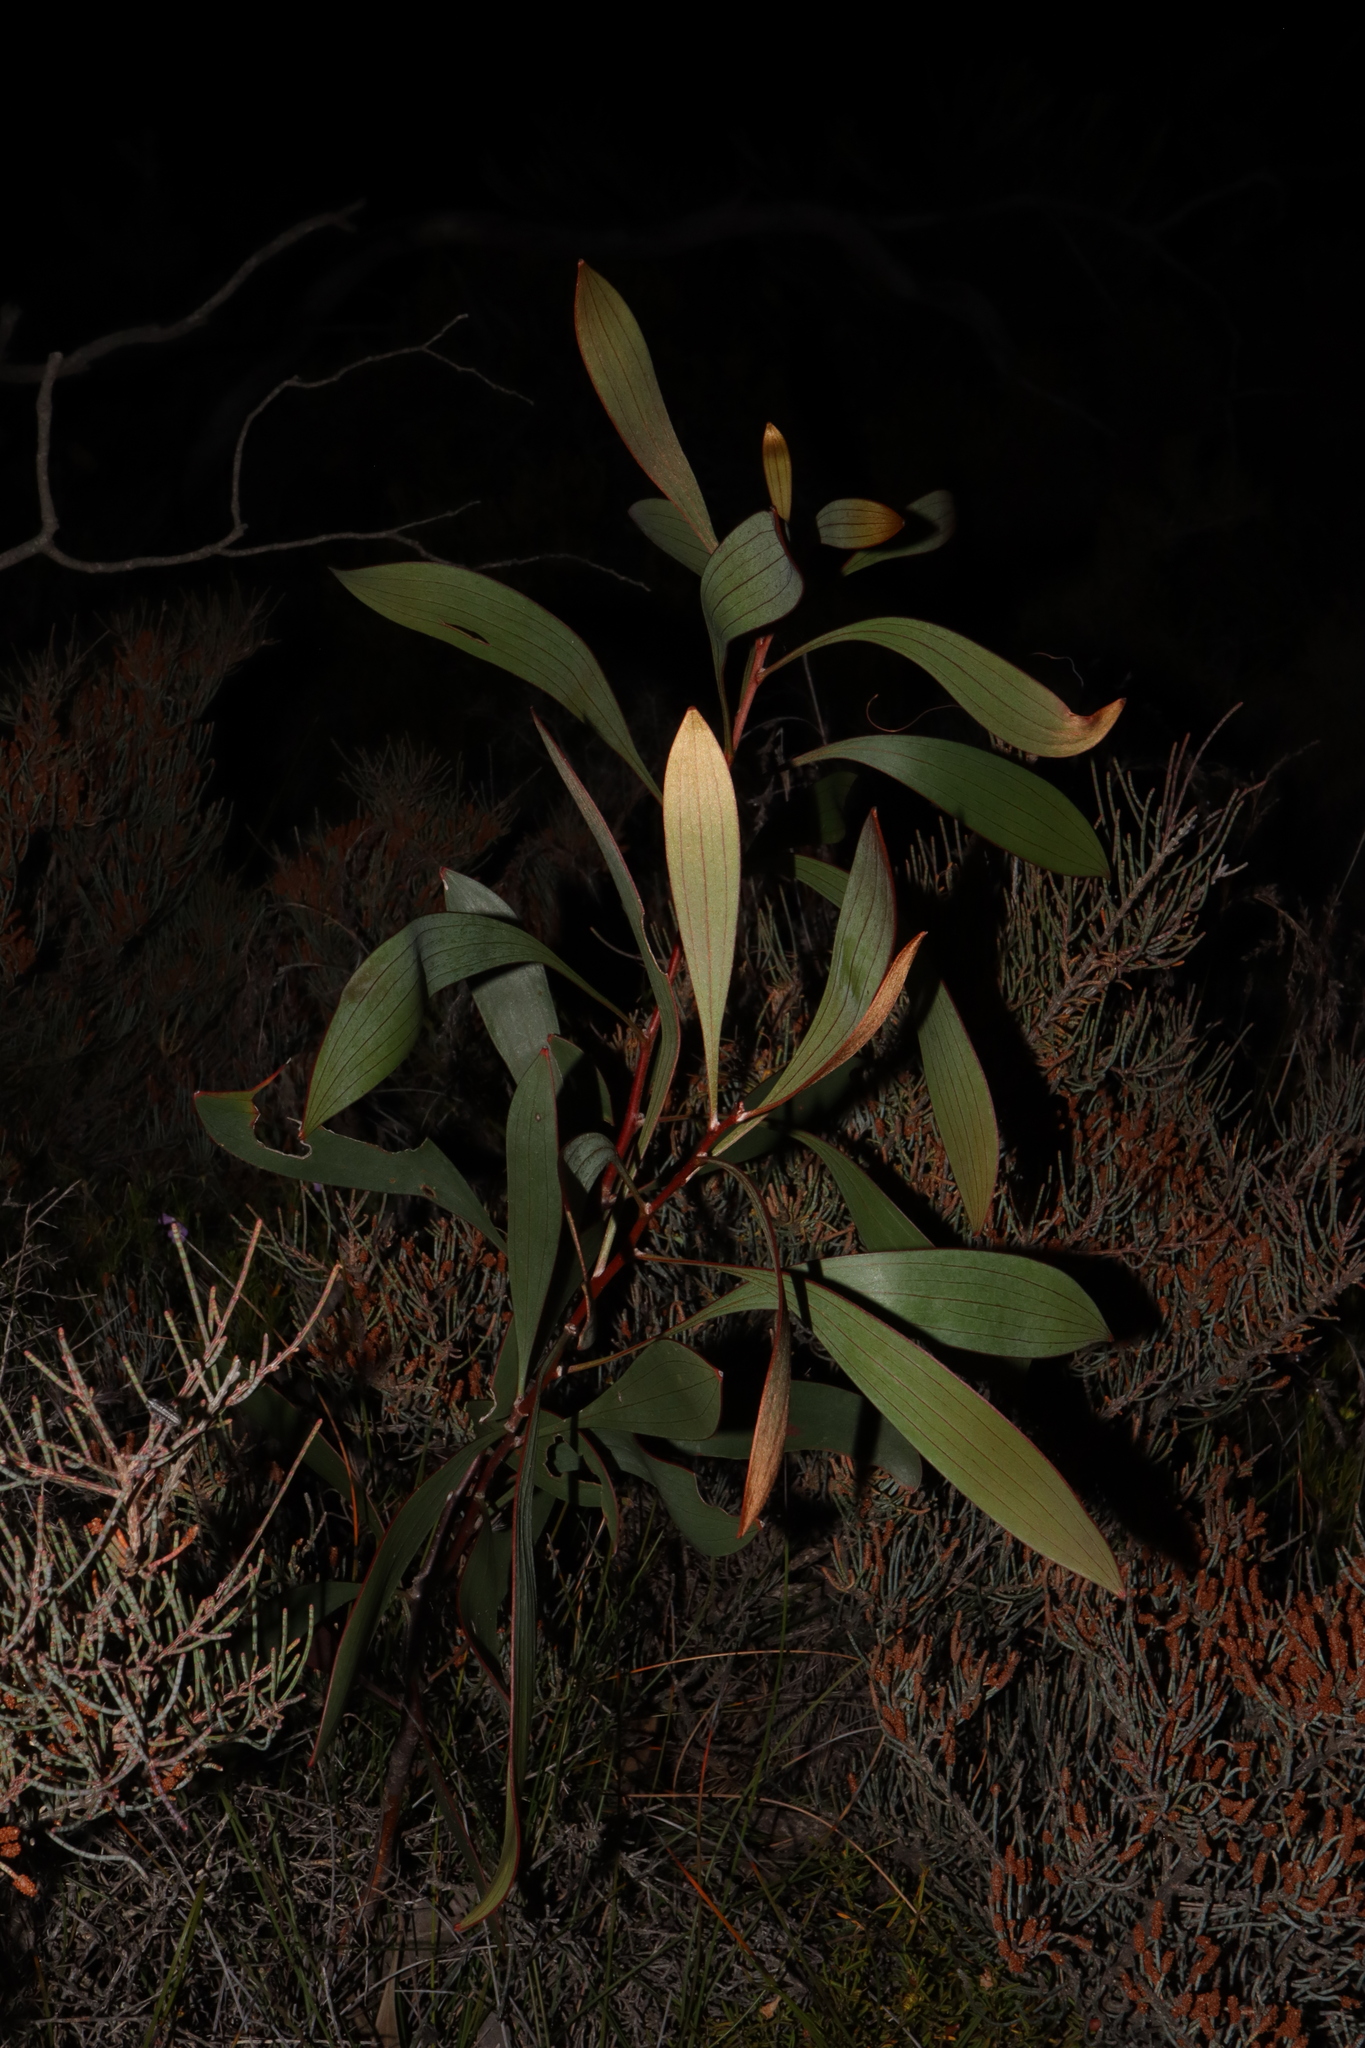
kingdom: Plantae
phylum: Tracheophyta
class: Magnoliopsida
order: Proteales
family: Proteaceae
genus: Hakea
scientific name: Hakea laurina
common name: Cushion hakea
